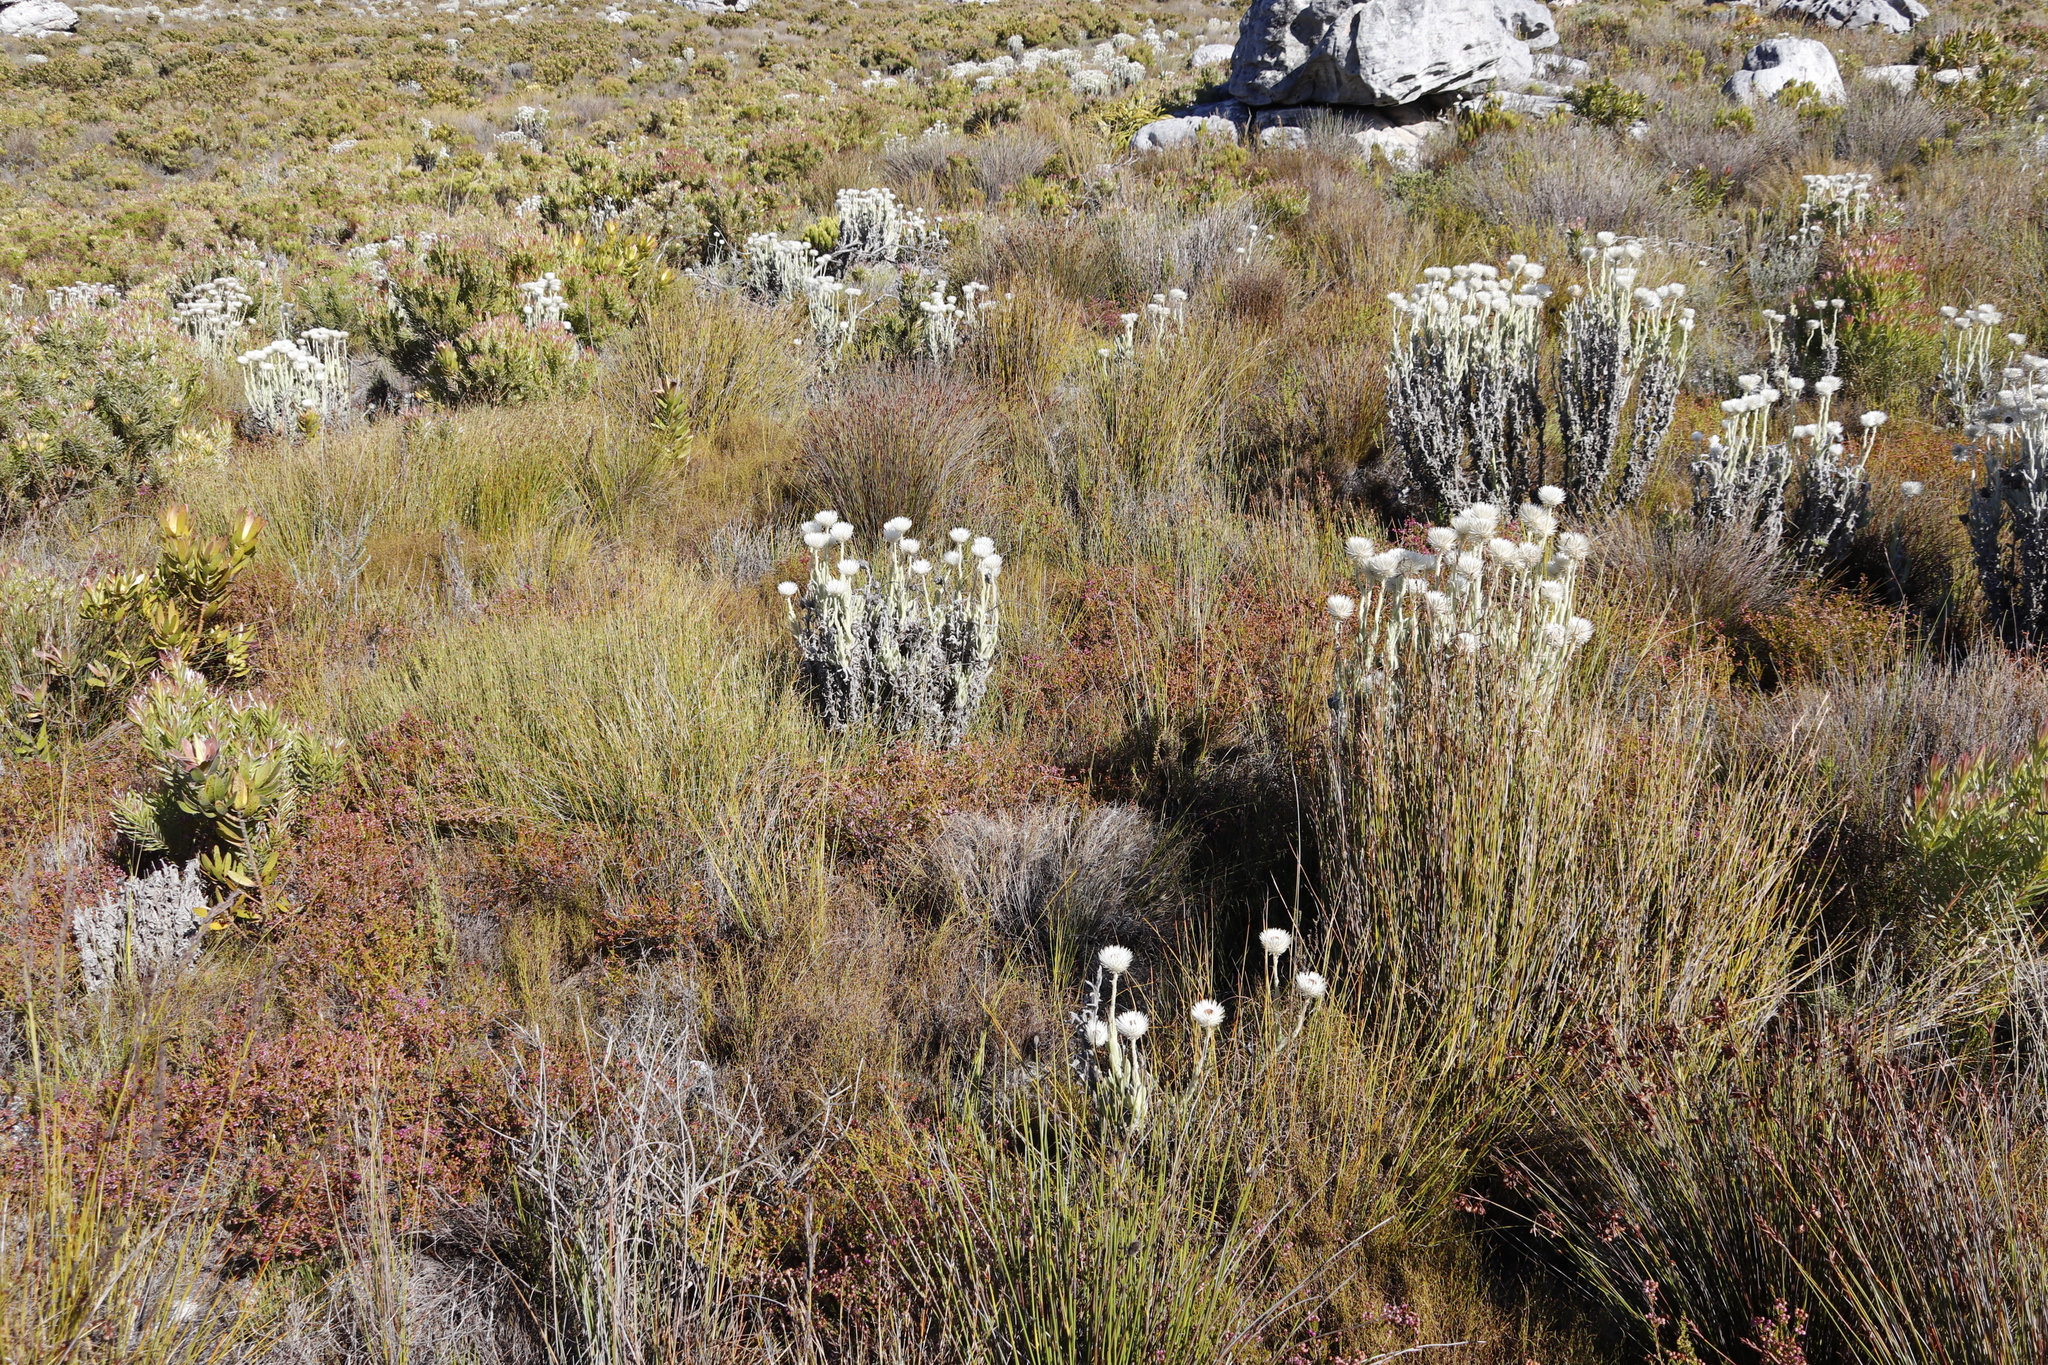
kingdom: Plantae
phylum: Tracheophyta
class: Magnoliopsida
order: Ericales
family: Ericaceae
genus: Erica
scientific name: Erica multumbellifera
